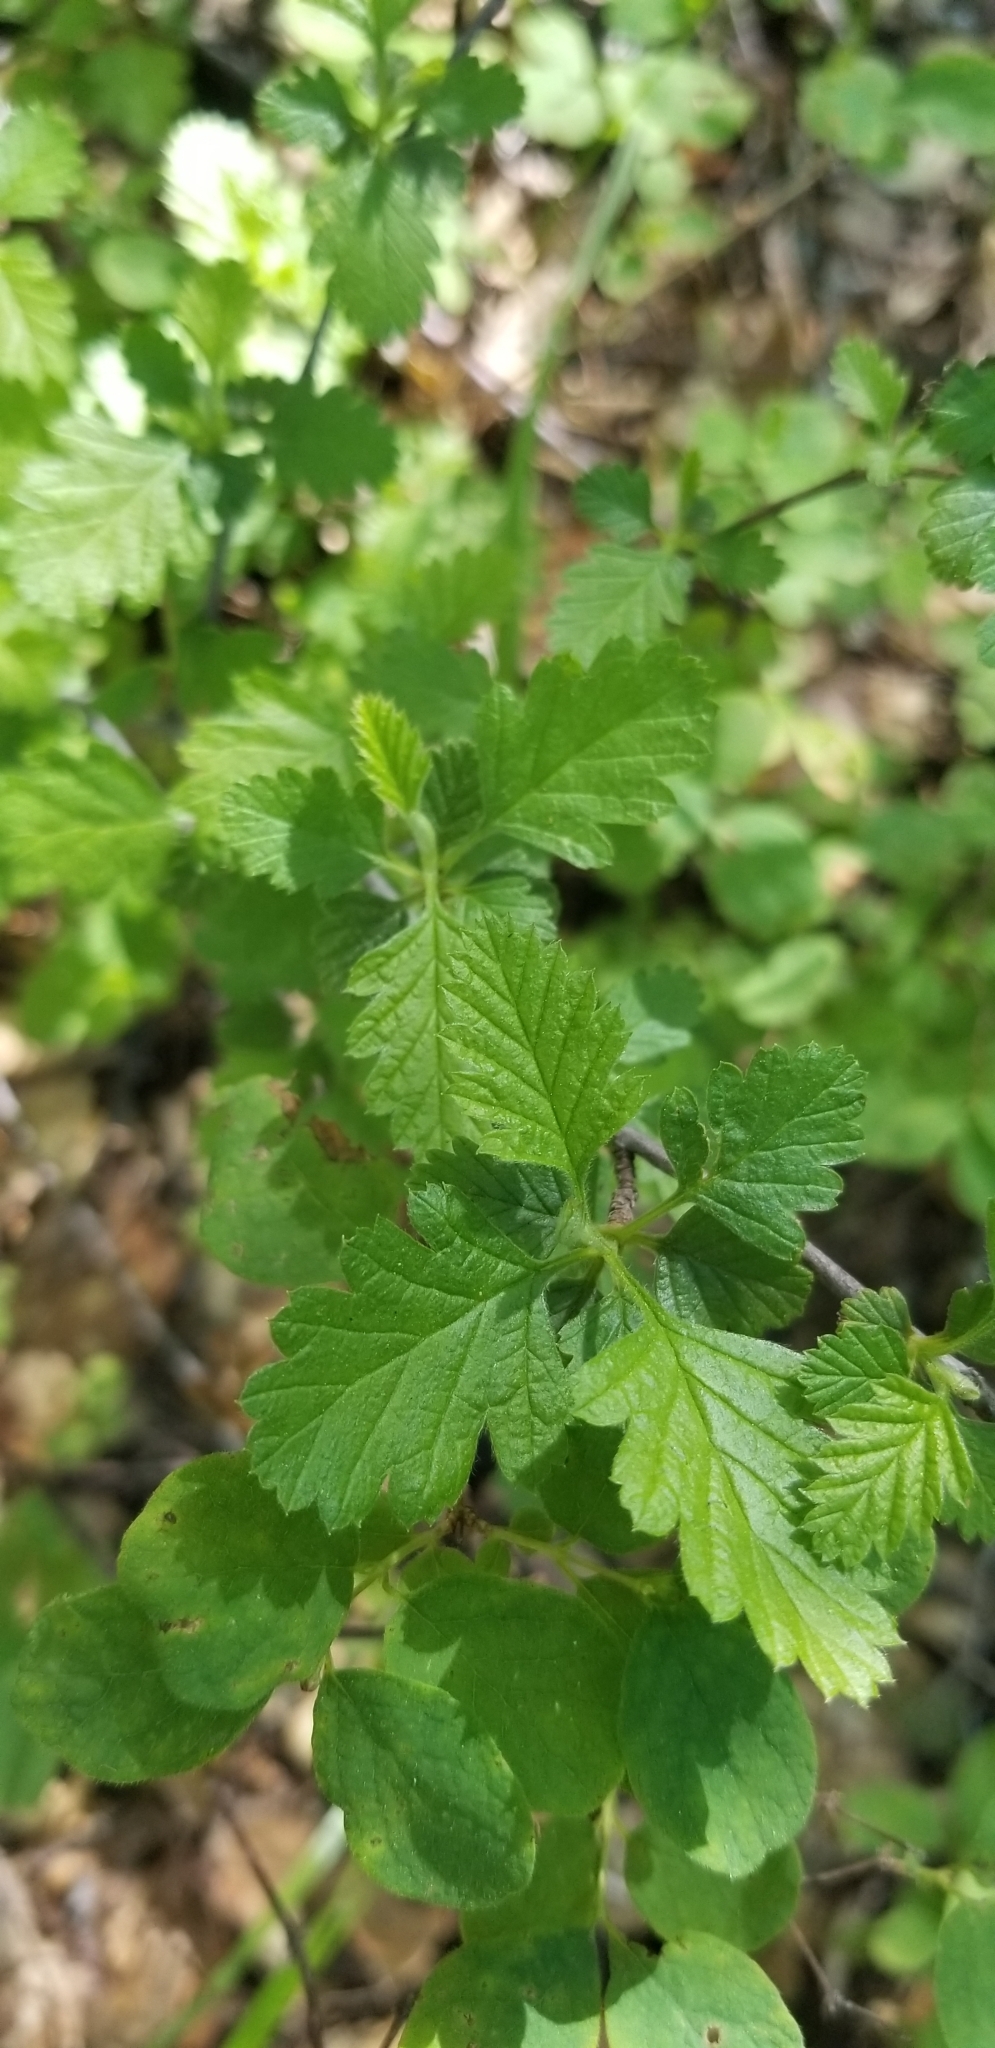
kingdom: Plantae
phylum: Tracheophyta
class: Magnoliopsida
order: Rosales
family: Rosaceae
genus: Holodiscus
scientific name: Holodiscus discolor
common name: Oceanspray
